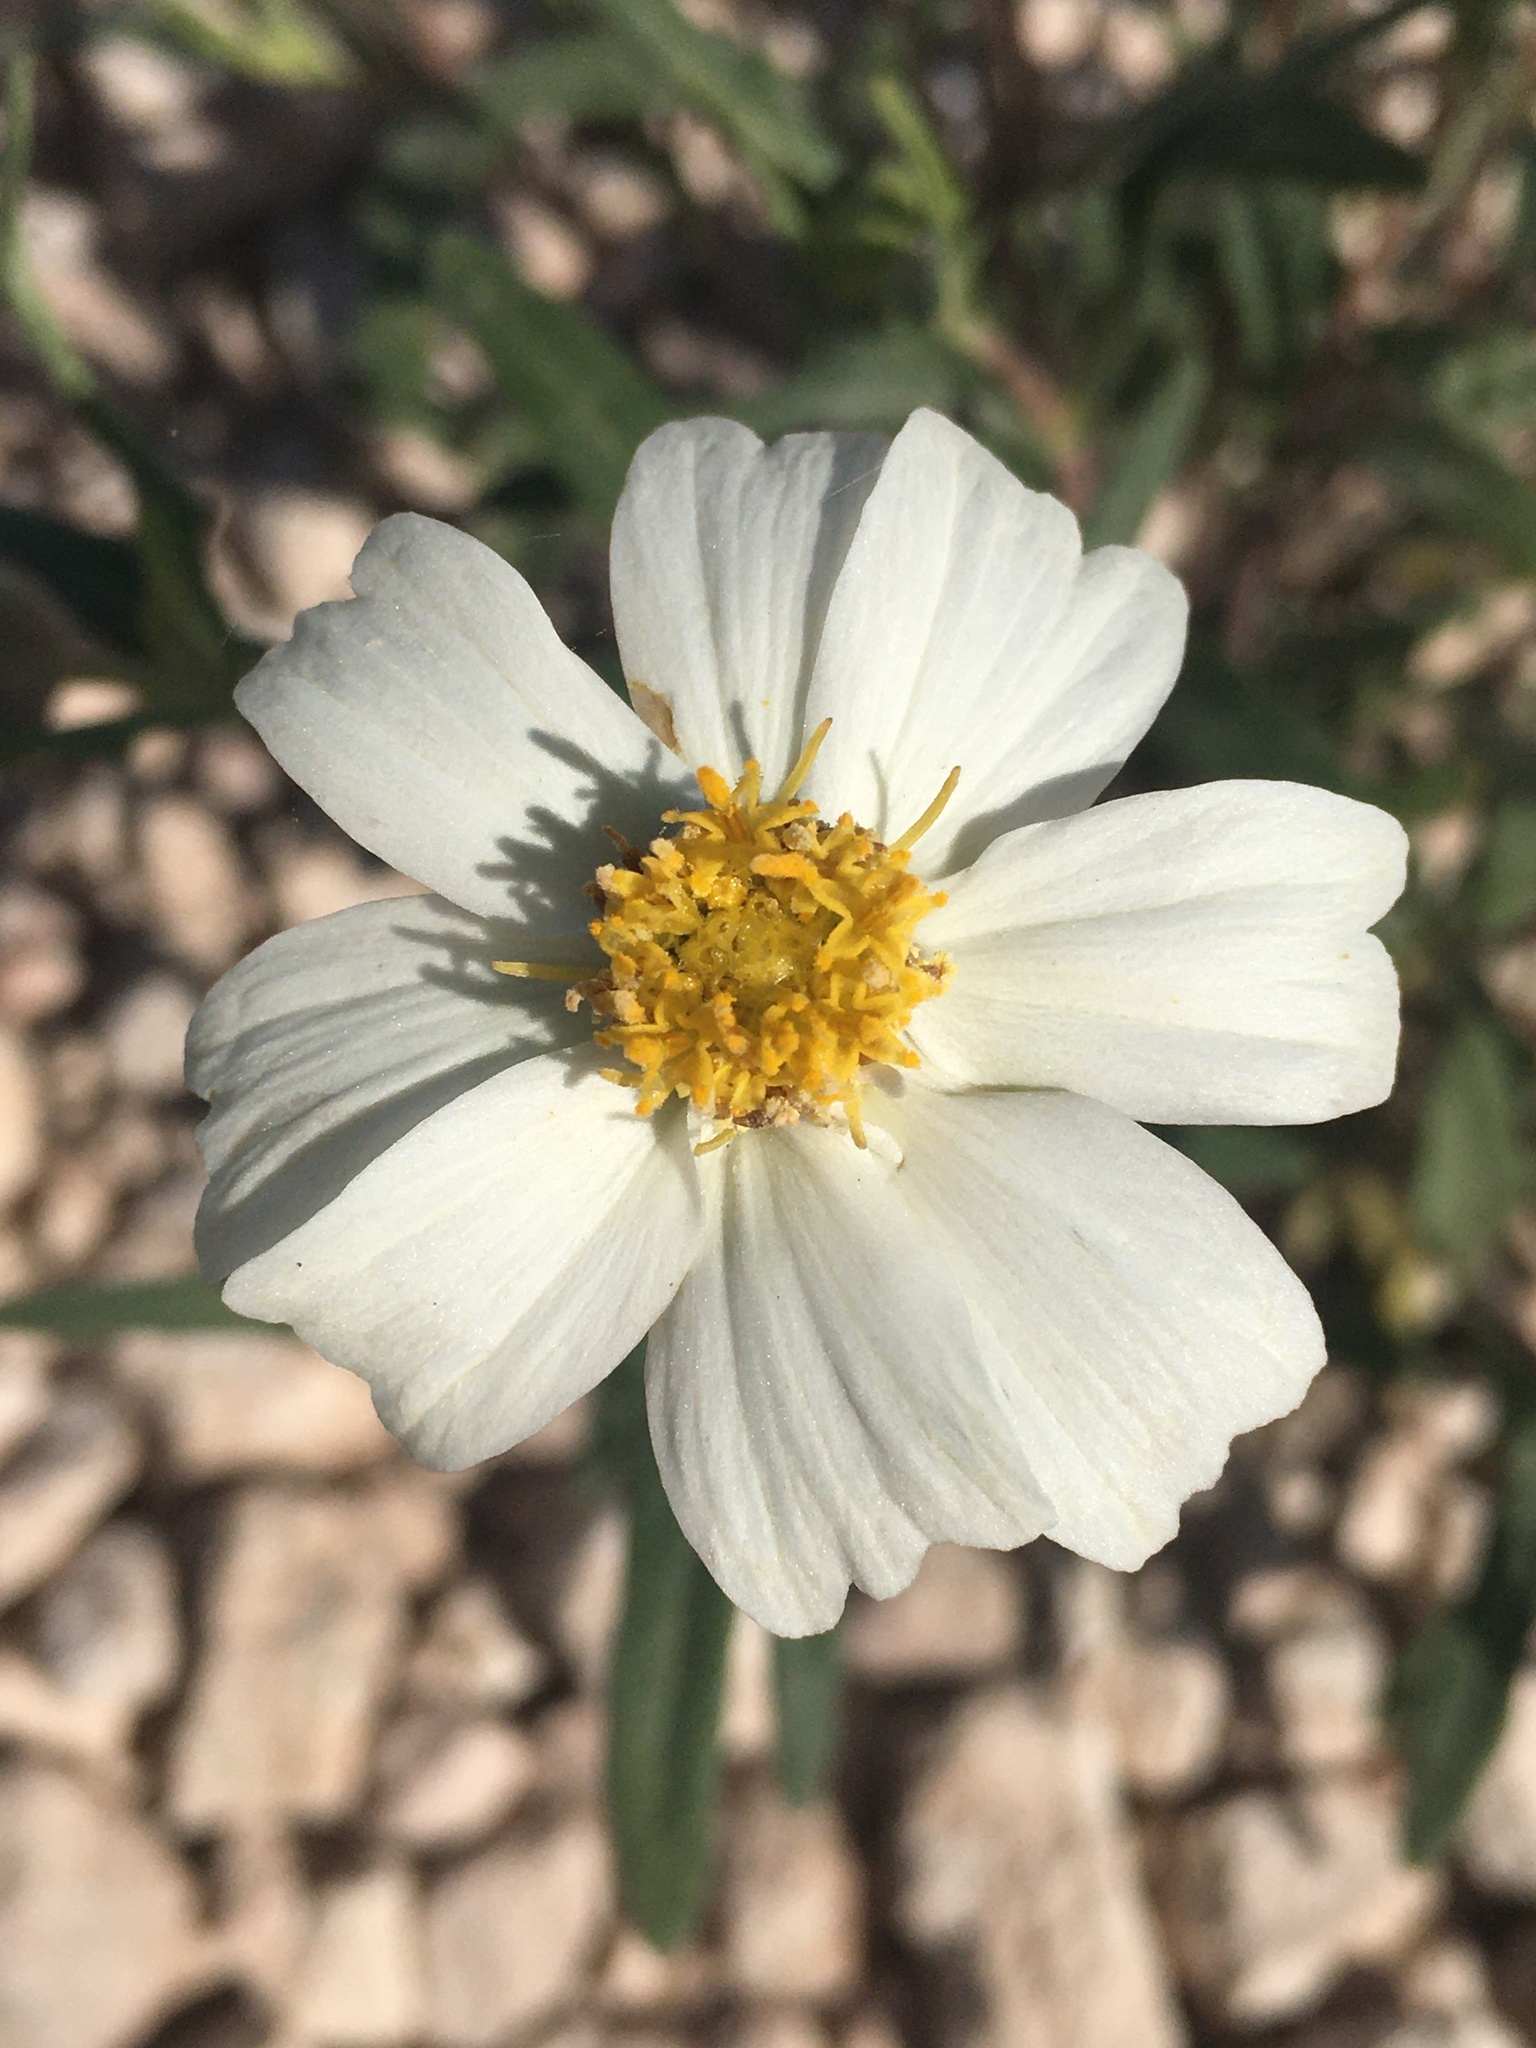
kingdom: Plantae
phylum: Tracheophyta
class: Magnoliopsida
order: Asterales
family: Asteraceae
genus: Melampodium
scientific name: Melampodium leucanthum
